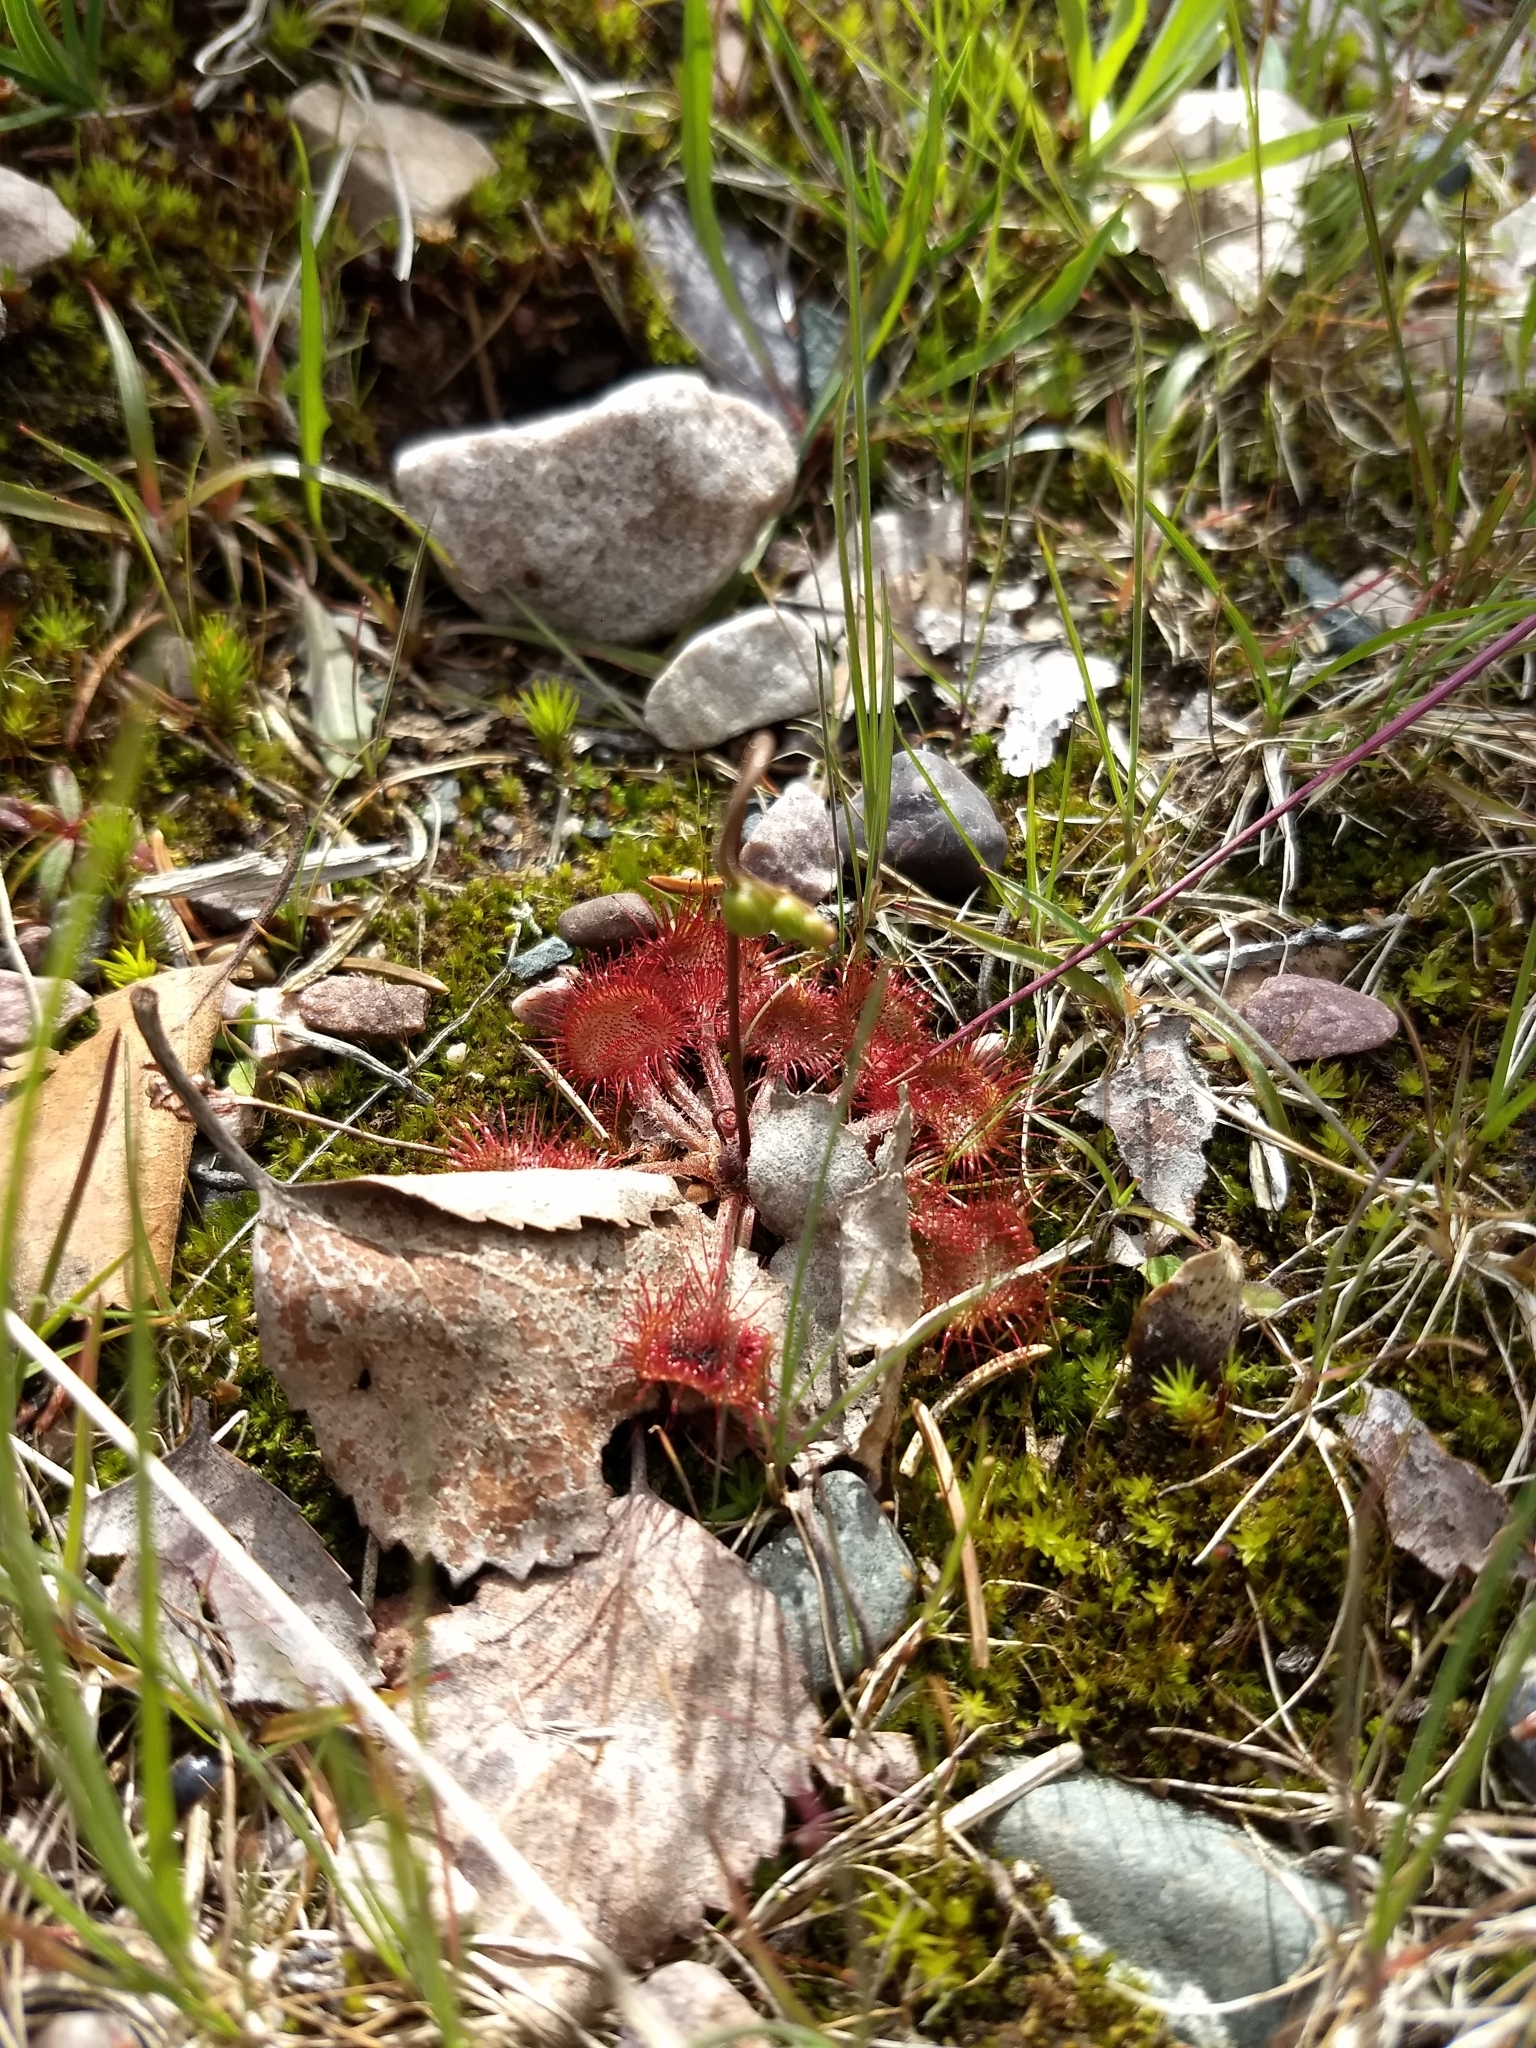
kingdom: Plantae
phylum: Tracheophyta
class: Magnoliopsida
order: Caryophyllales
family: Droseraceae
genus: Drosera
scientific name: Drosera rotundifolia
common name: Round-leaved sundew
